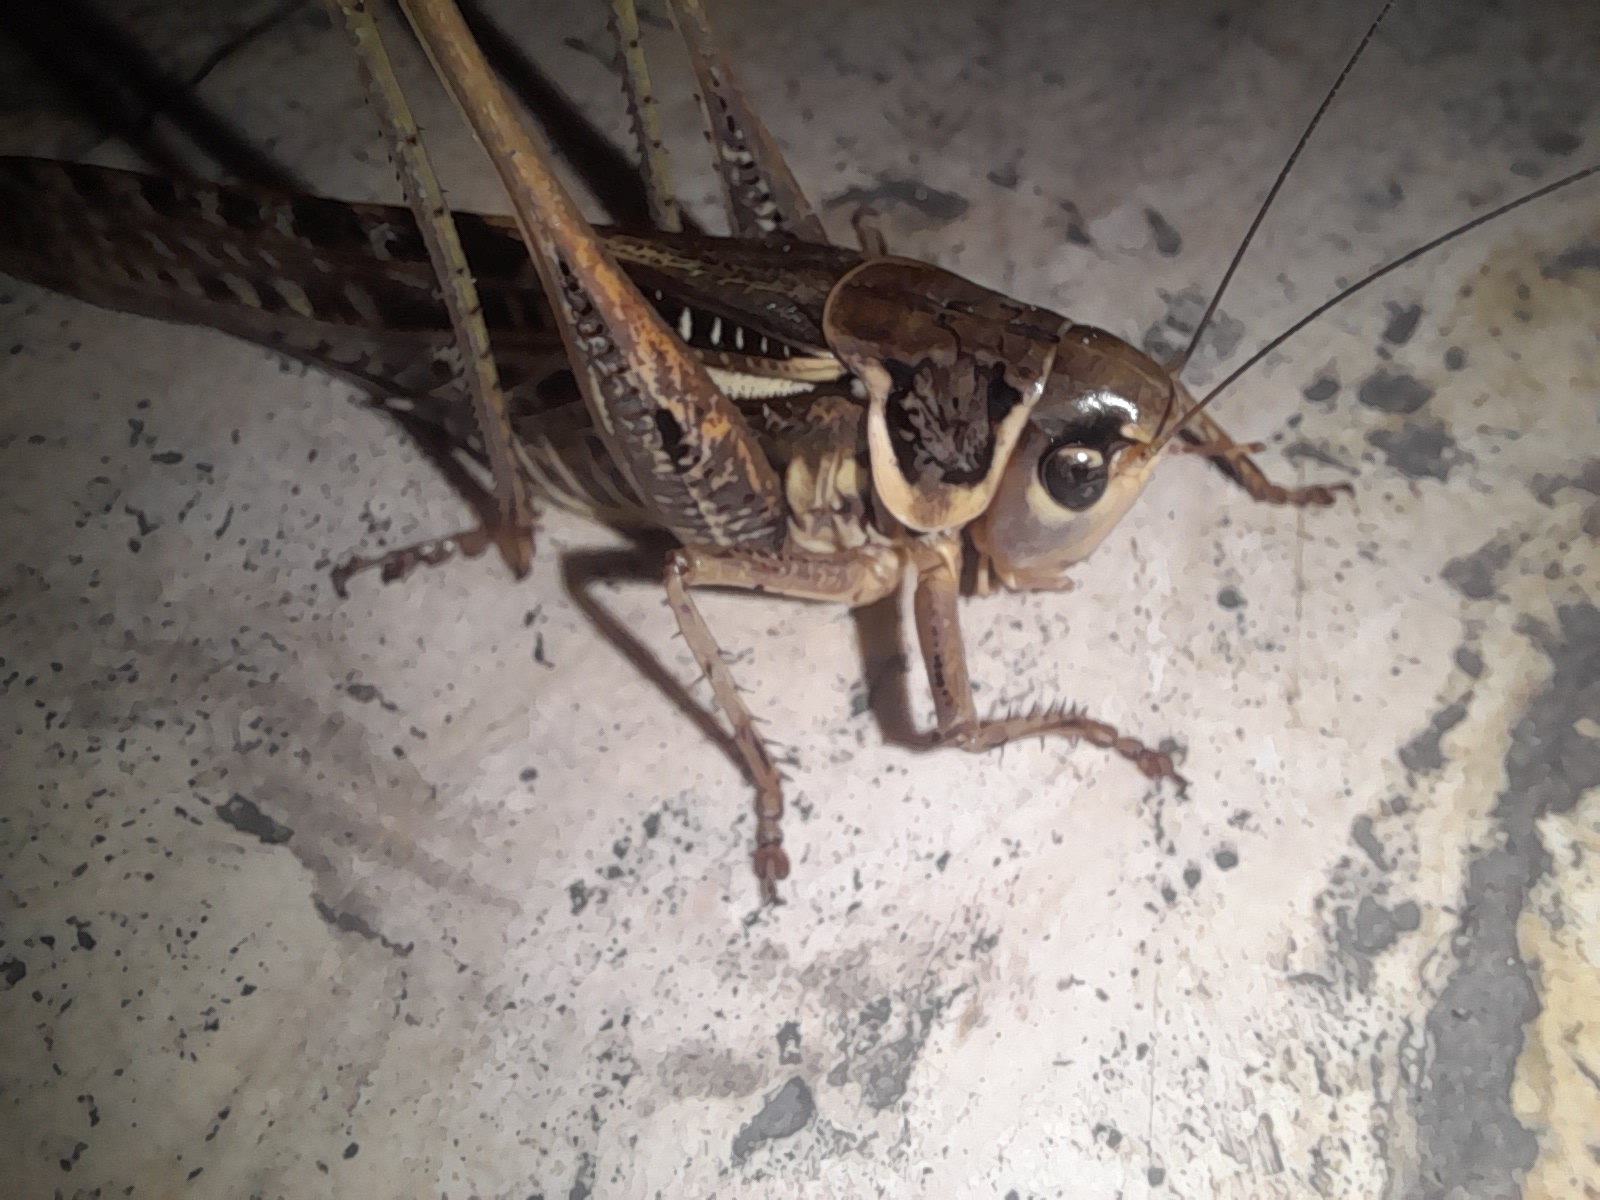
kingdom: Animalia
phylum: Arthropoda
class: Insecta
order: Orthoptera
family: Tettigoniidae
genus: Decticus
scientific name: Decticus albifrons
